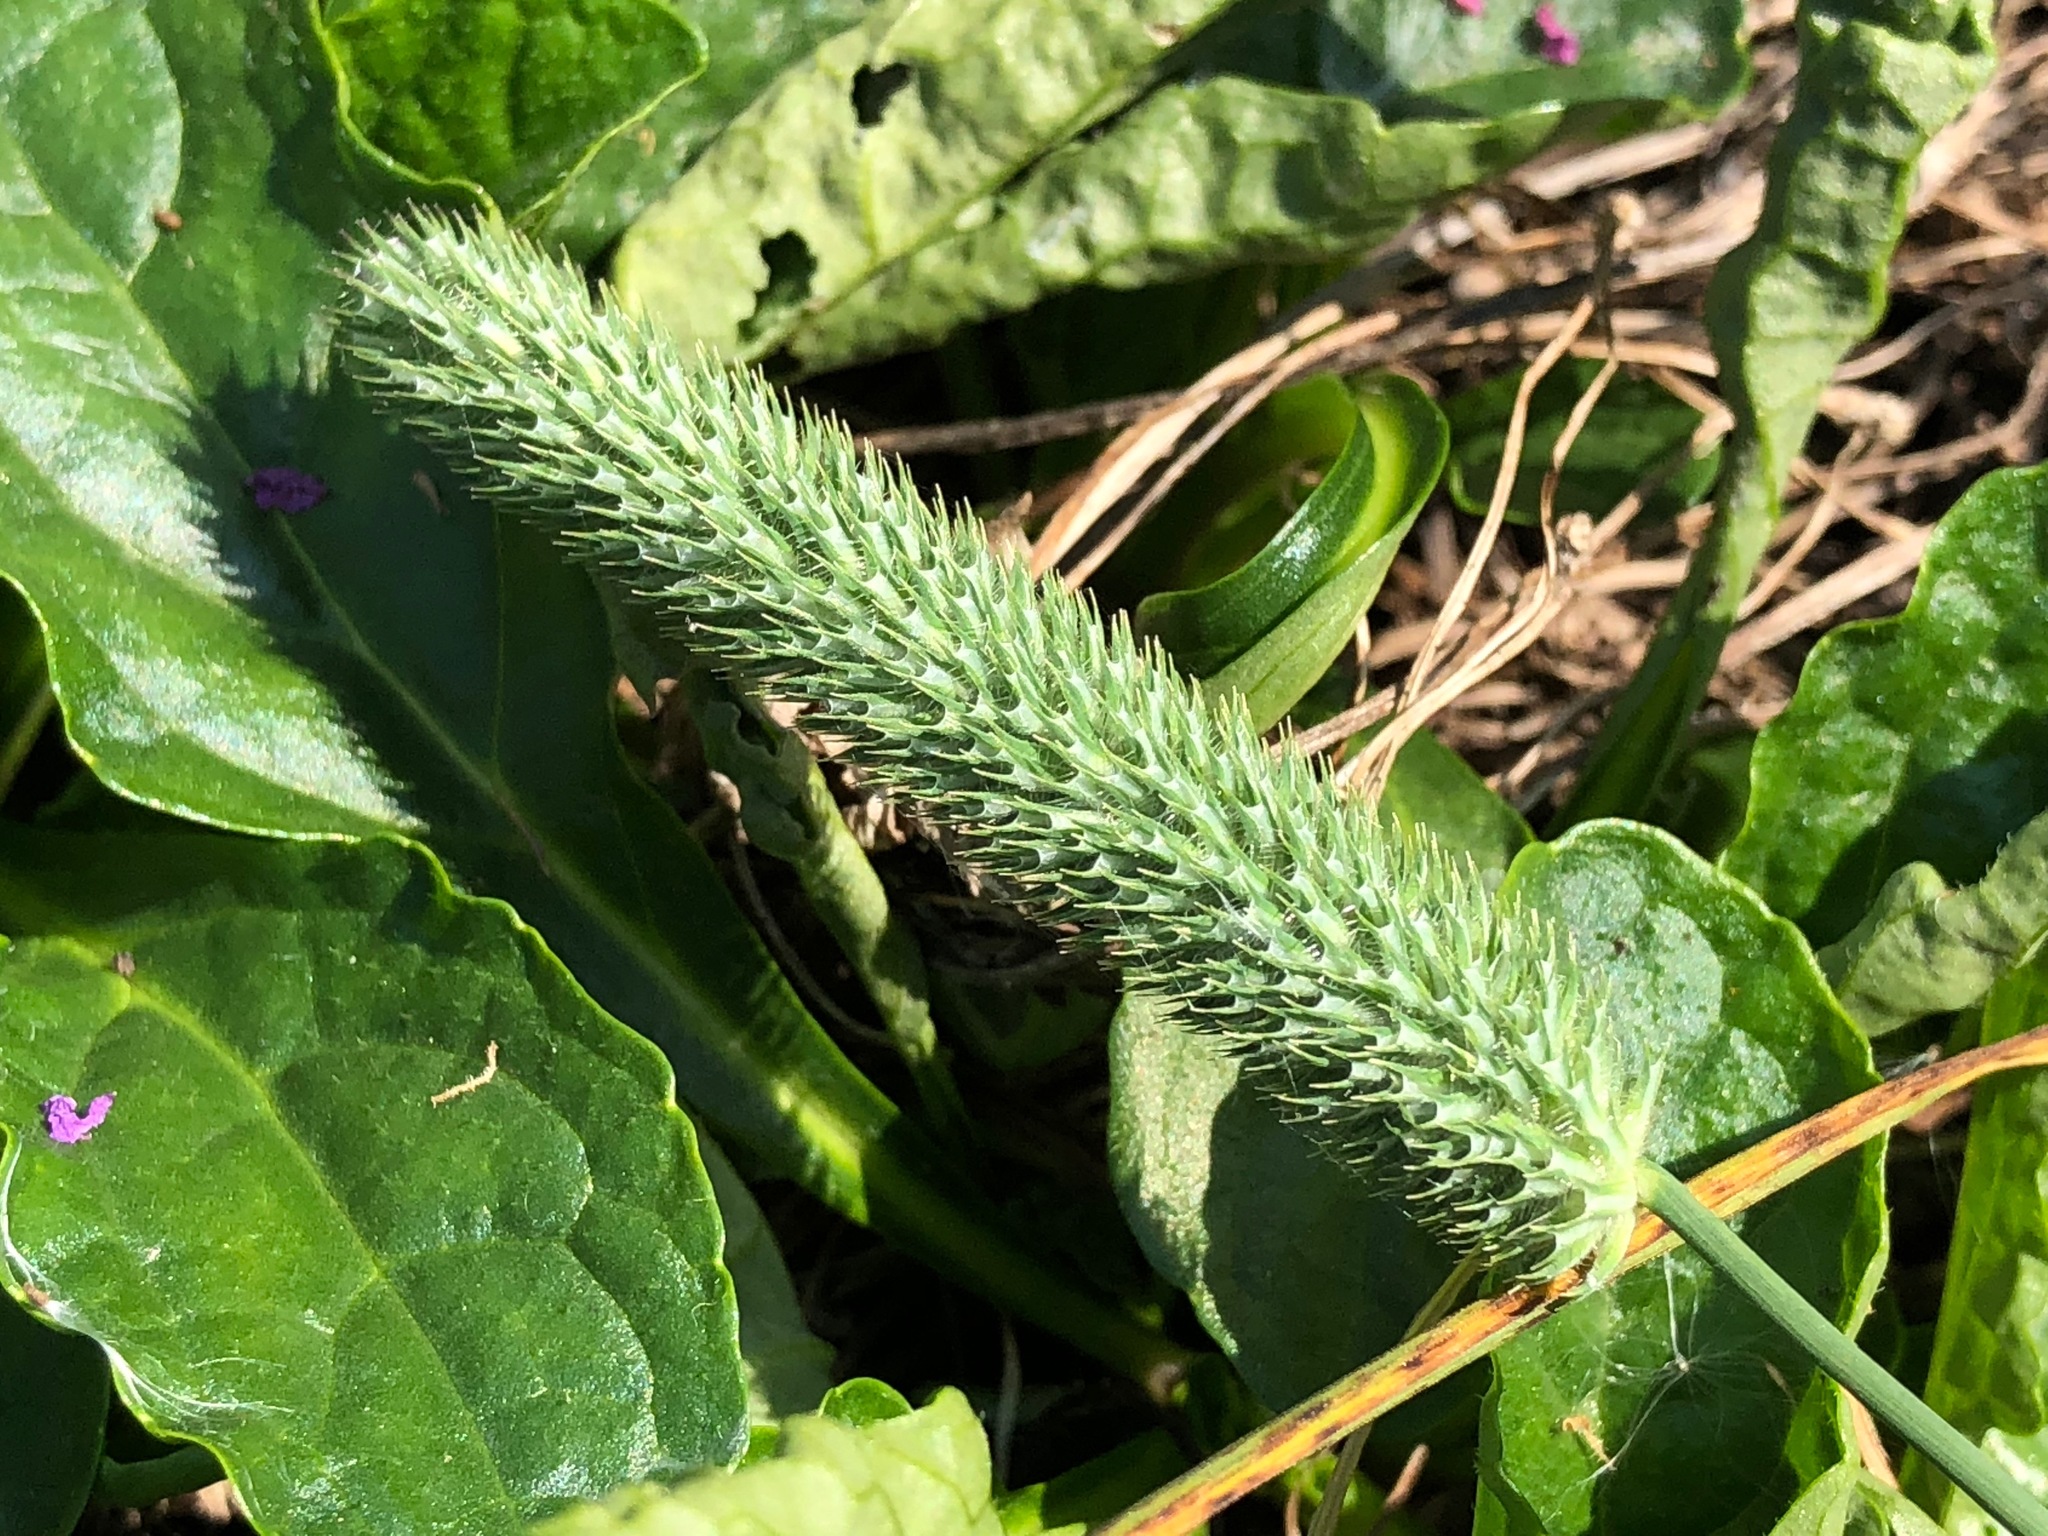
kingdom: Plantae
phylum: Tracheophyta
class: Liliopsida
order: Poales
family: Poaceae
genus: Phleum
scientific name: Phleum pratense
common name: Timothy grass
